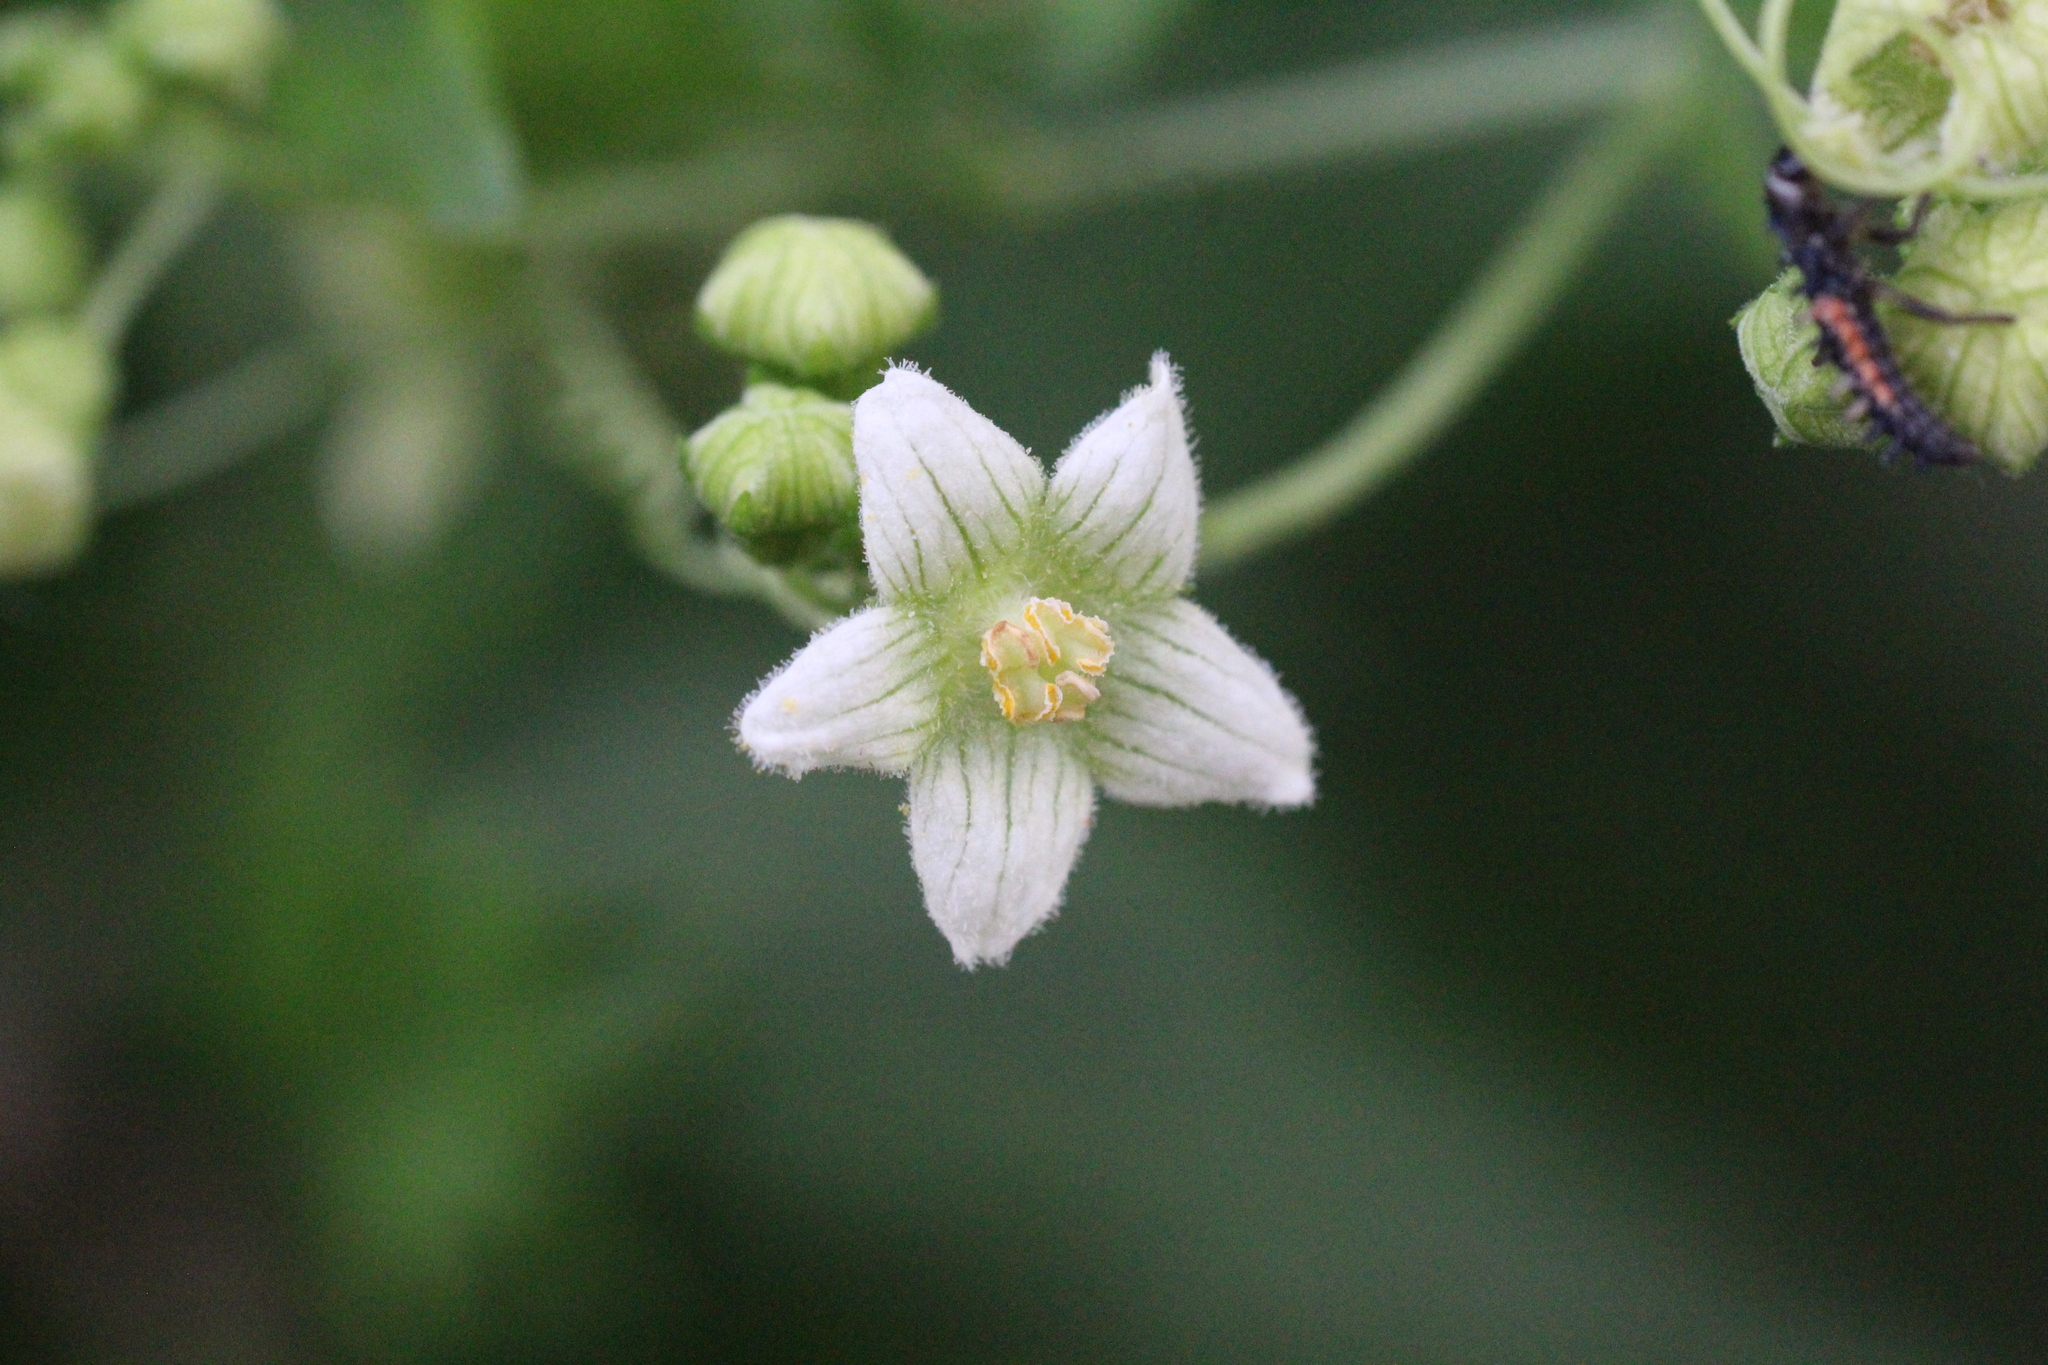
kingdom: Plantae
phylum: Tracheophyta
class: Magnoliopsida
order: Cucurbitales
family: Cucurbitaceae
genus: Bryonia
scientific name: Bryonia dioica
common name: White bryony
